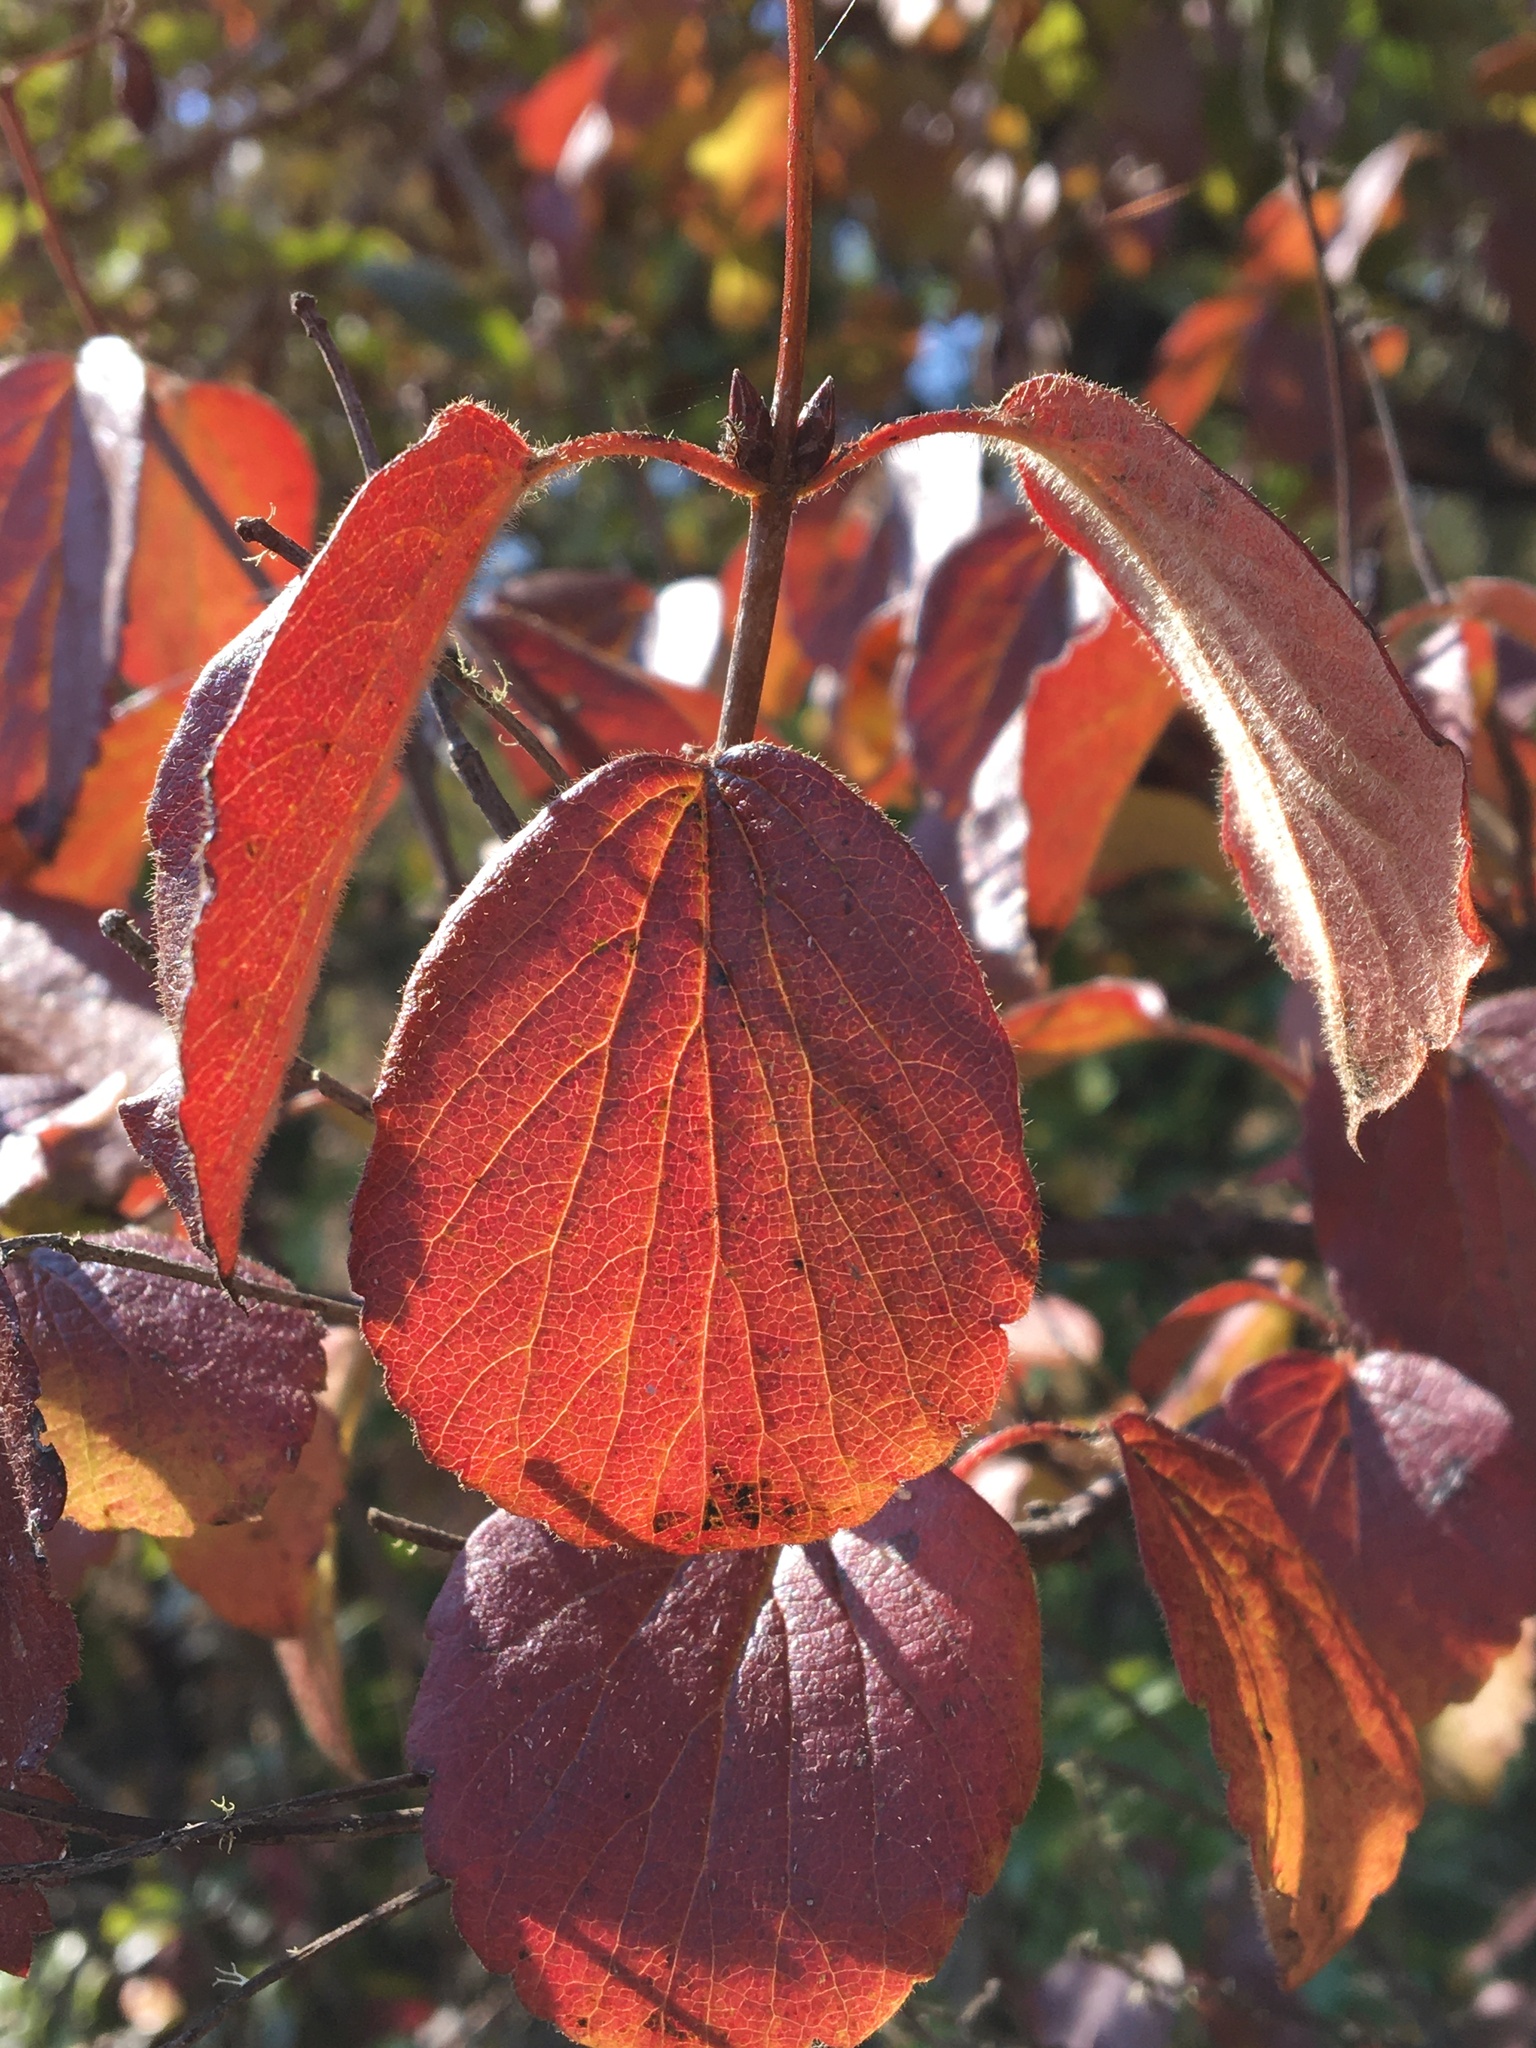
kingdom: Plantae
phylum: Tracheophyta
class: Magnoliopsida
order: Dipsacales
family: Viburnaceae
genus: Viburnum
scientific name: Viburnum ellipticum
